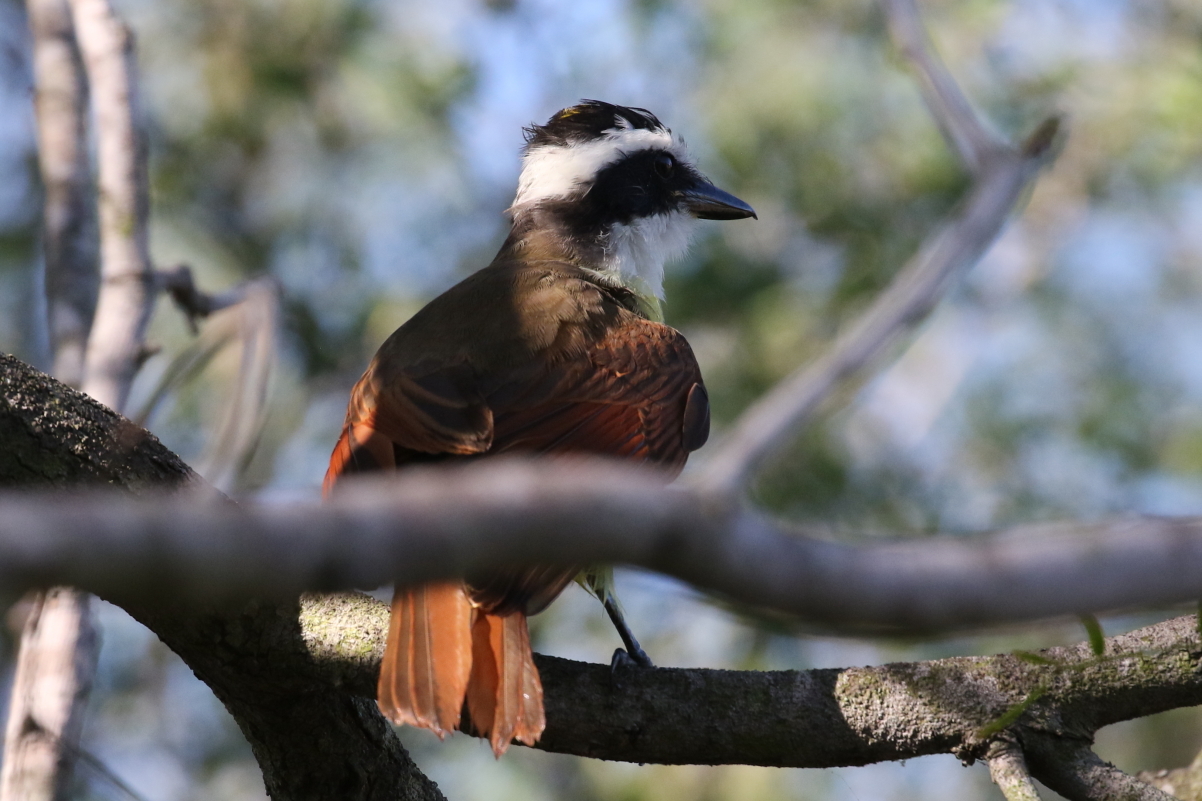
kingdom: Animalia
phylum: Chordata
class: Aves
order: Passeriformes
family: Tyrannidae
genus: Pitangus
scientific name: Pitangus sulphuratus
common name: Great kiskadee
